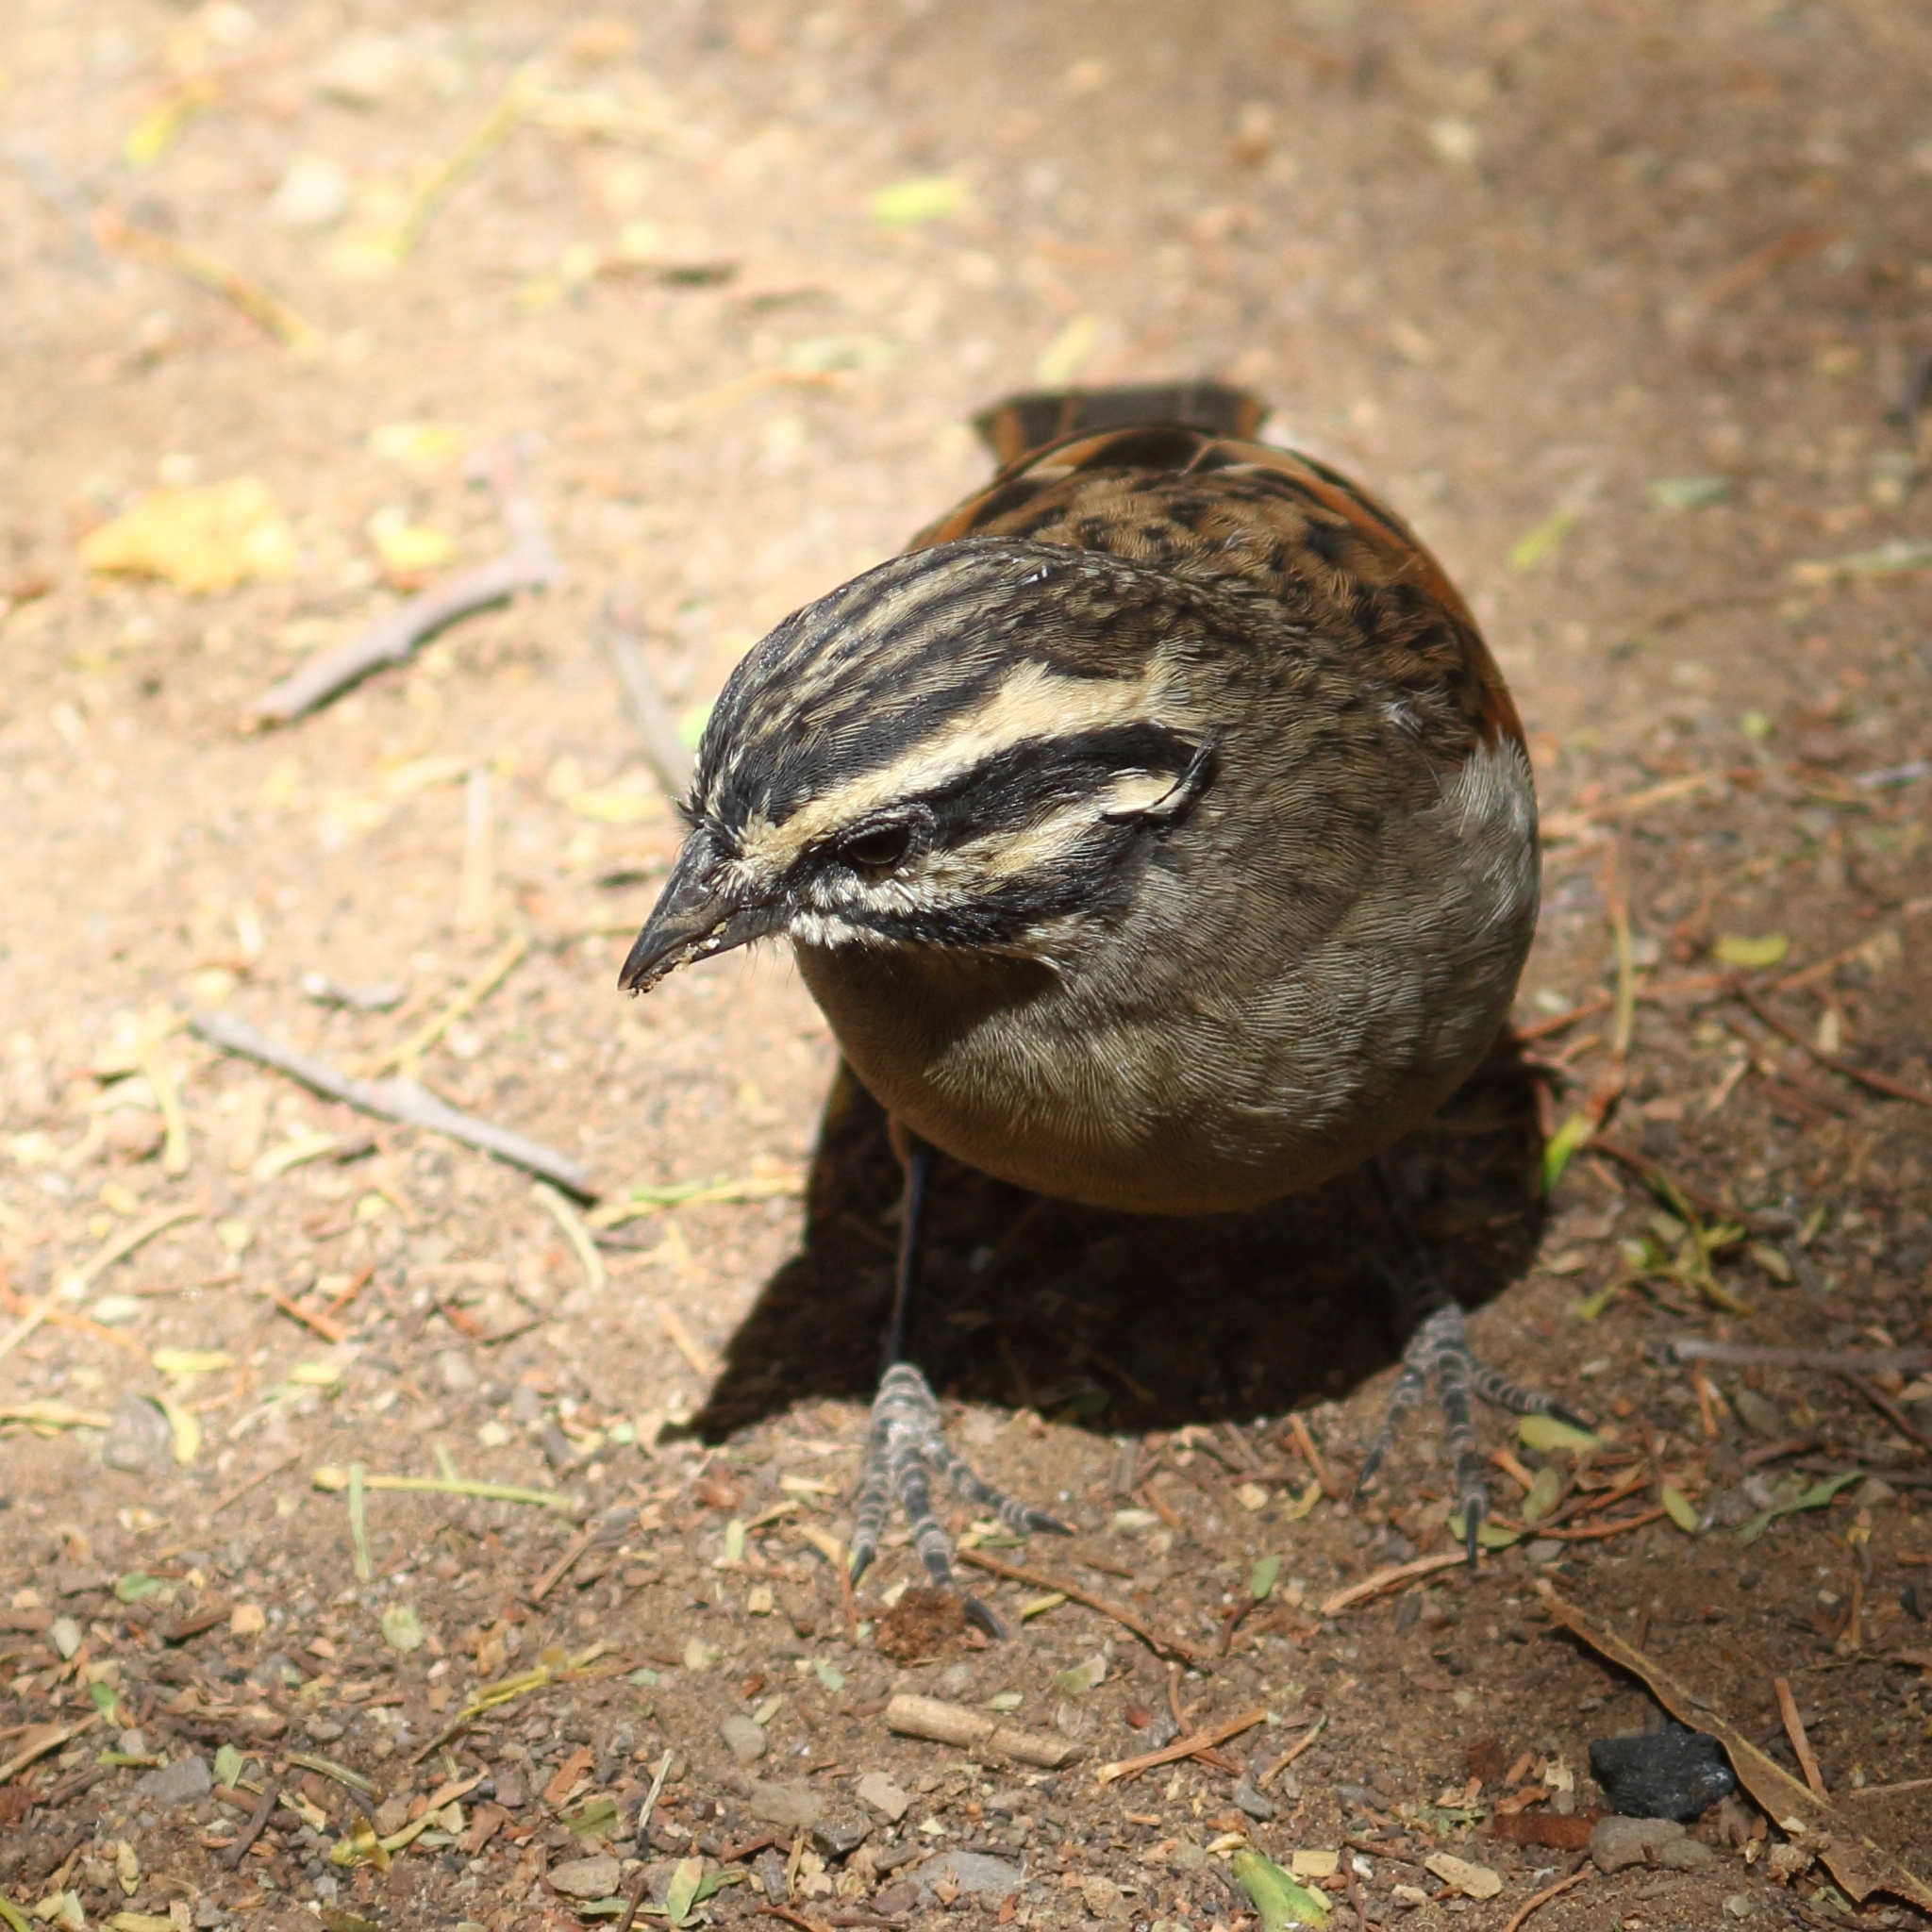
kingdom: Animalia
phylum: Chordata
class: Aves
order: Passeriformes
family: Emberizidae
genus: Emberiza
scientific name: Emberiza capensis
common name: Cape bunting
